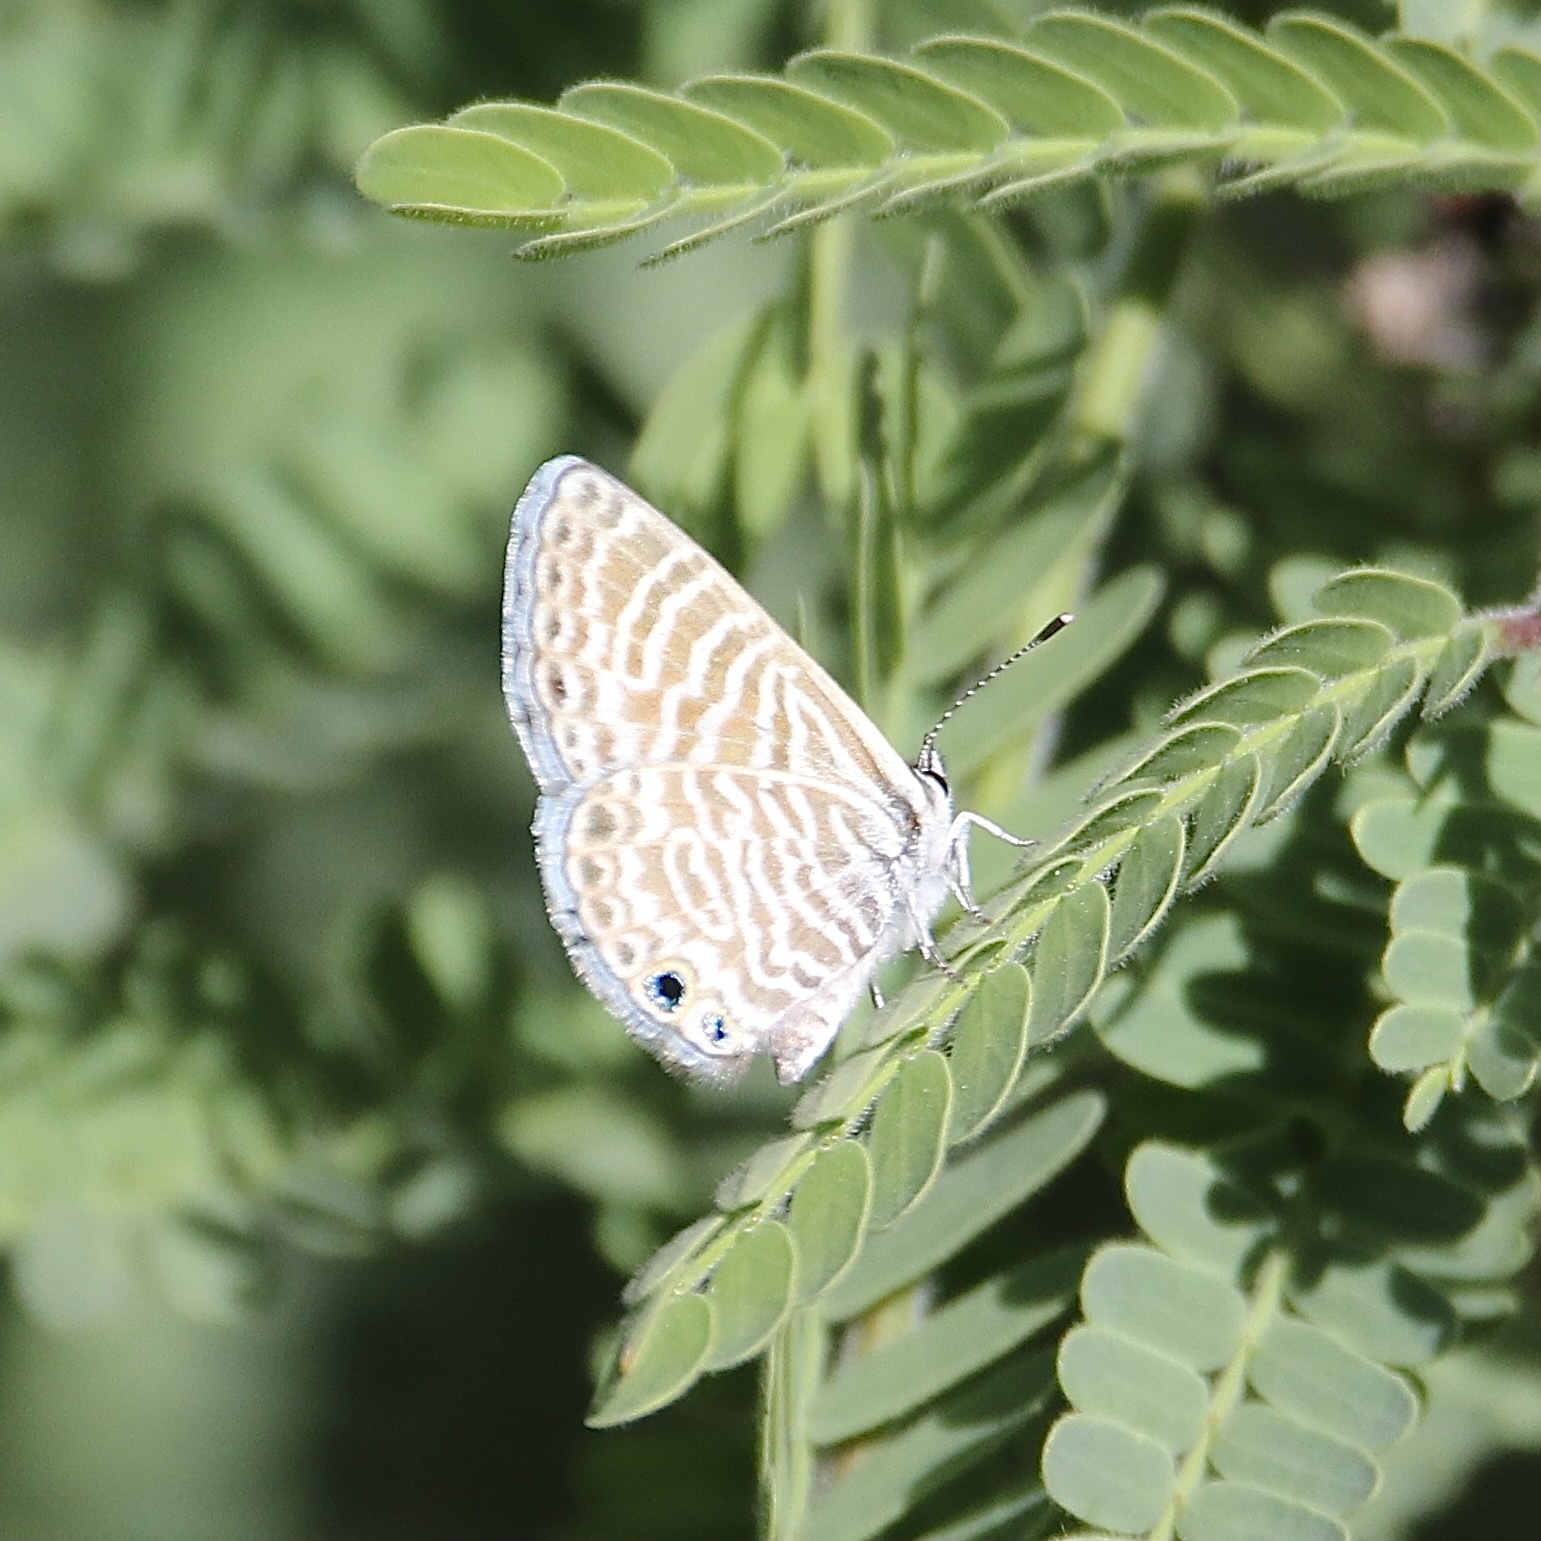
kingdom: Animalia
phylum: Arthropoda
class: Insecta
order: Lepidoptera
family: Lycaenidae
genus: Leptotes
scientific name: Leptotes marina
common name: Marine blue
